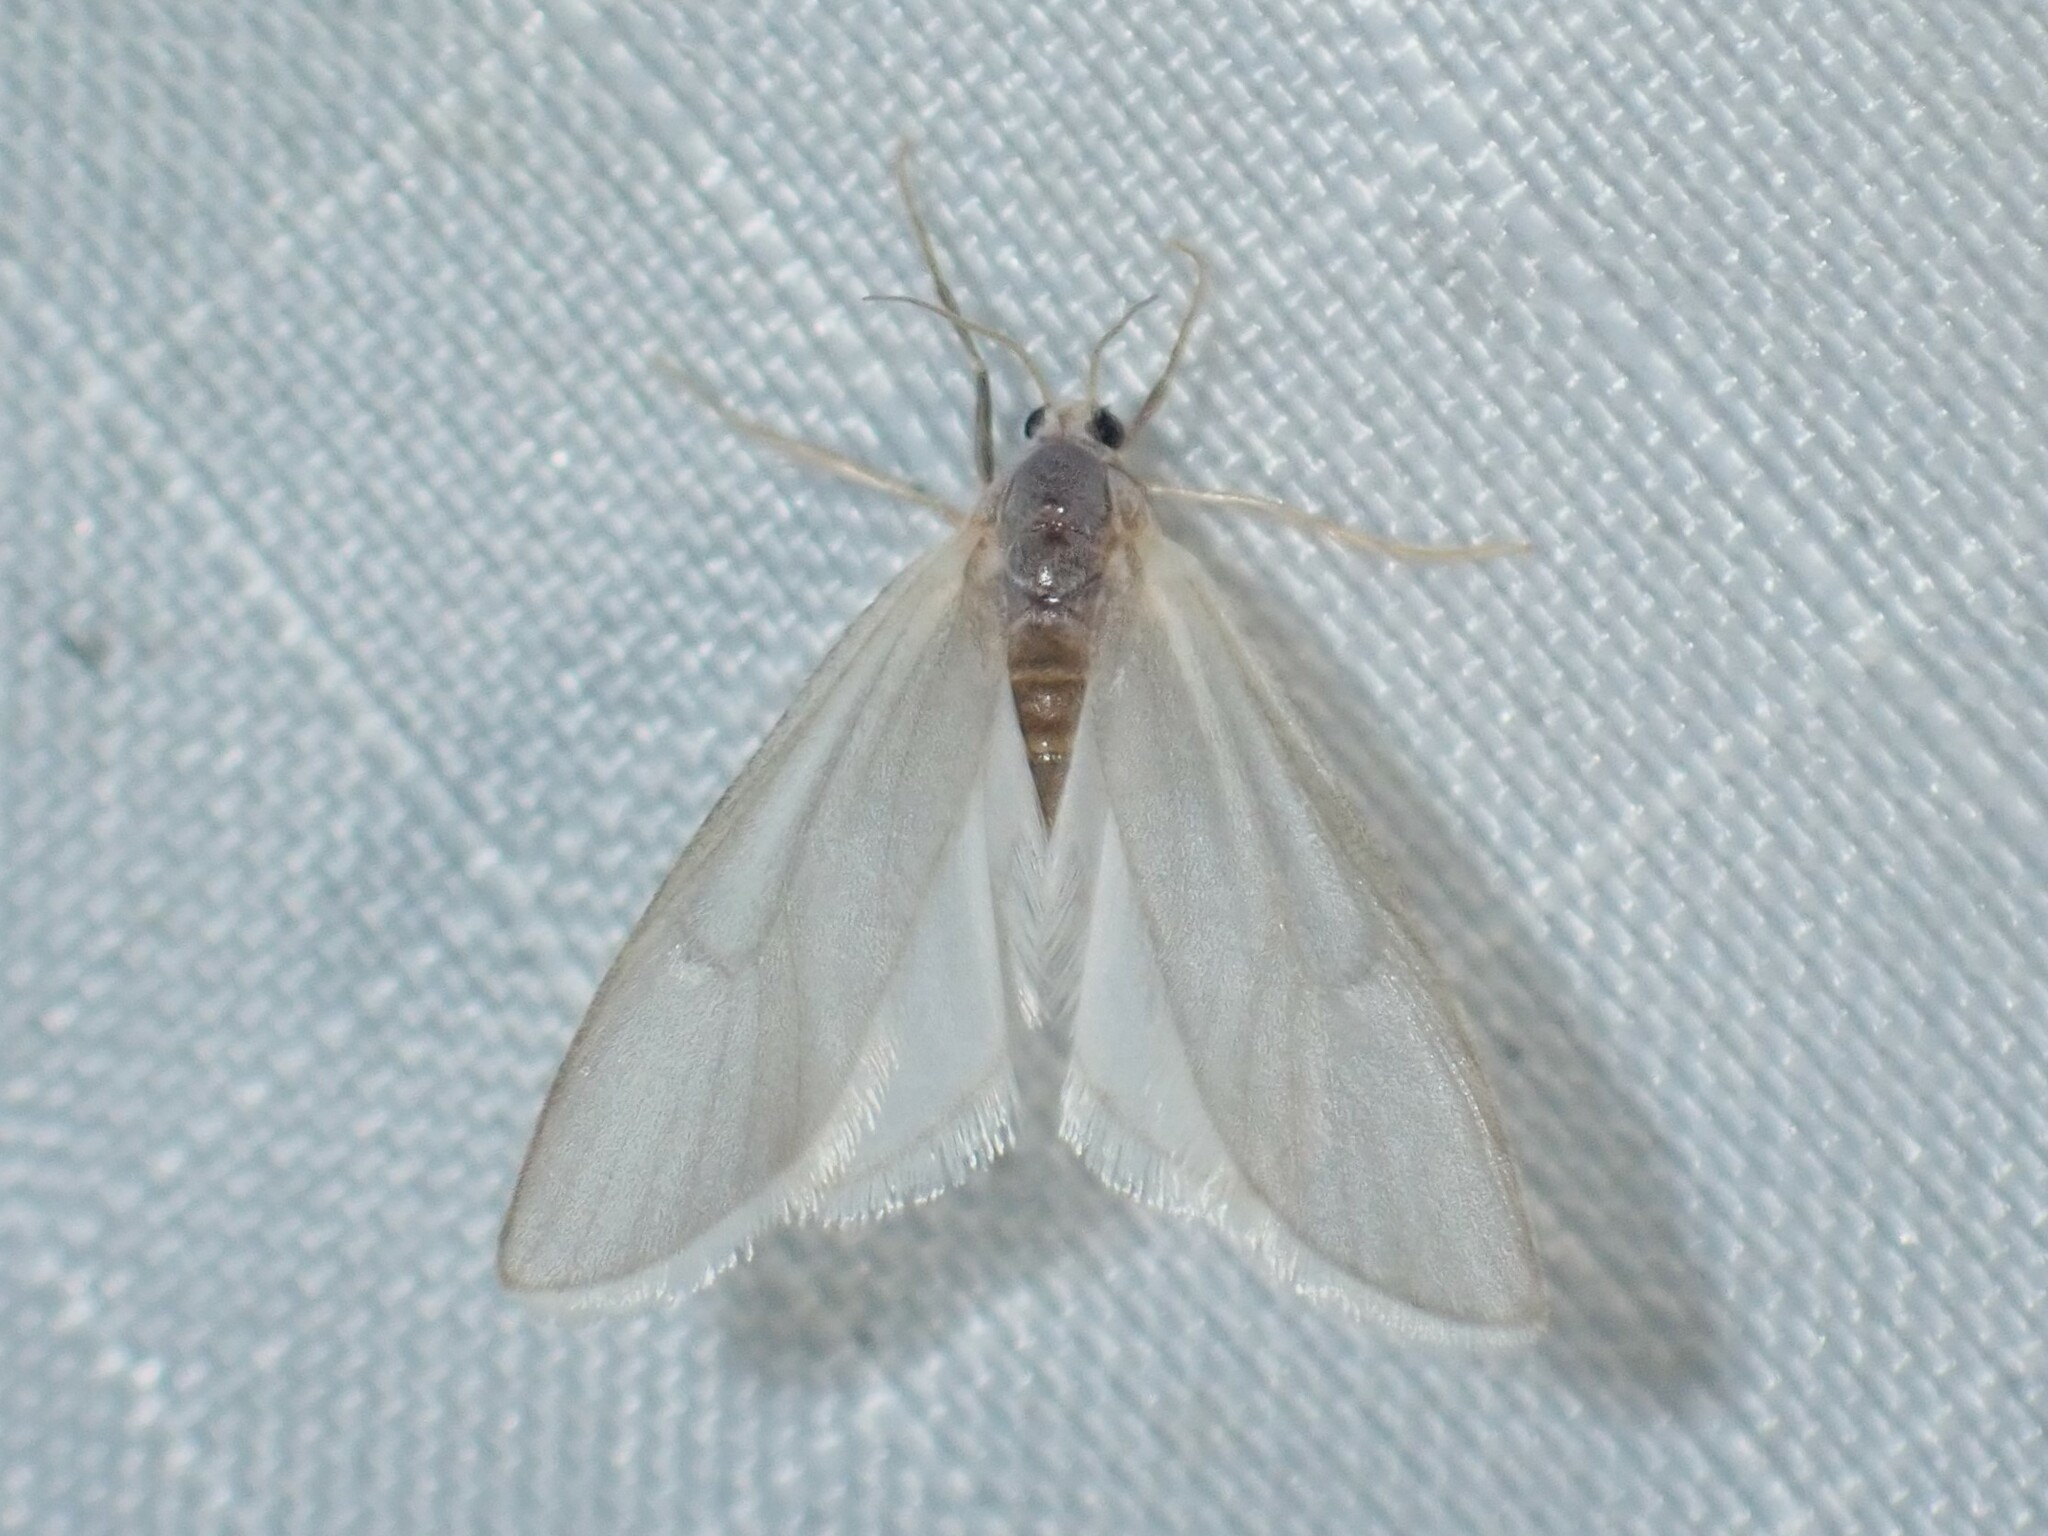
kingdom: Animalia
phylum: Arthropoda
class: Insecta
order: Lepidoptera
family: Crambidae
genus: Acentria
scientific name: Acentria ephemerella
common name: European water moth
